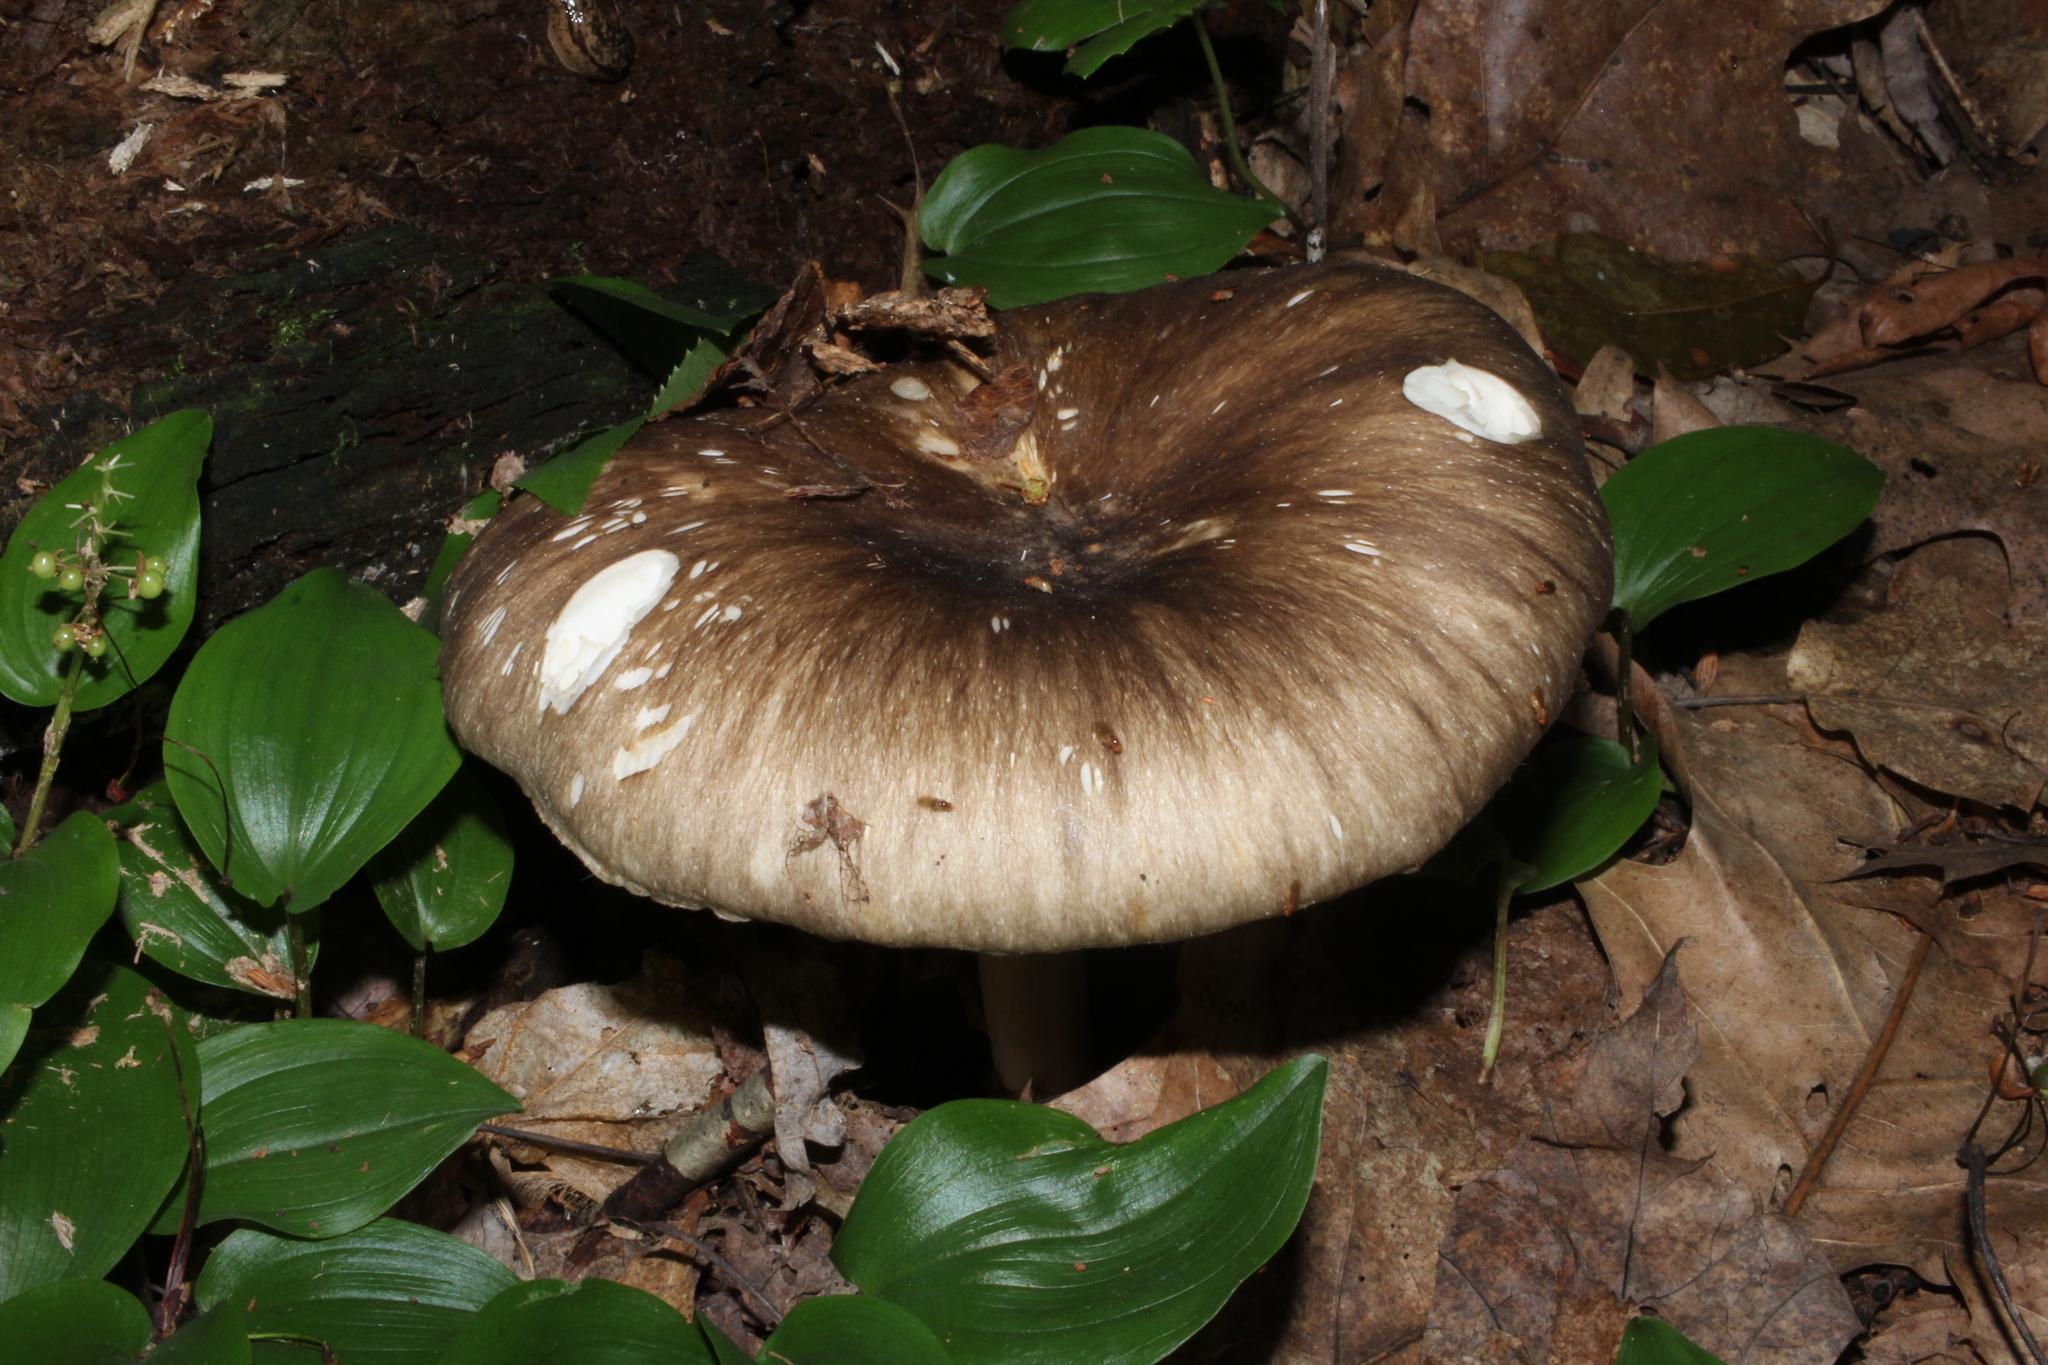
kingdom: Fungi
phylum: Basidiomycota
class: Agaricomycetes
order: Agaricales
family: Tricholomataceae
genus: Megacollybia
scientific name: Megacollybia rodmanii
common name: Eastern american platterful mushroom
